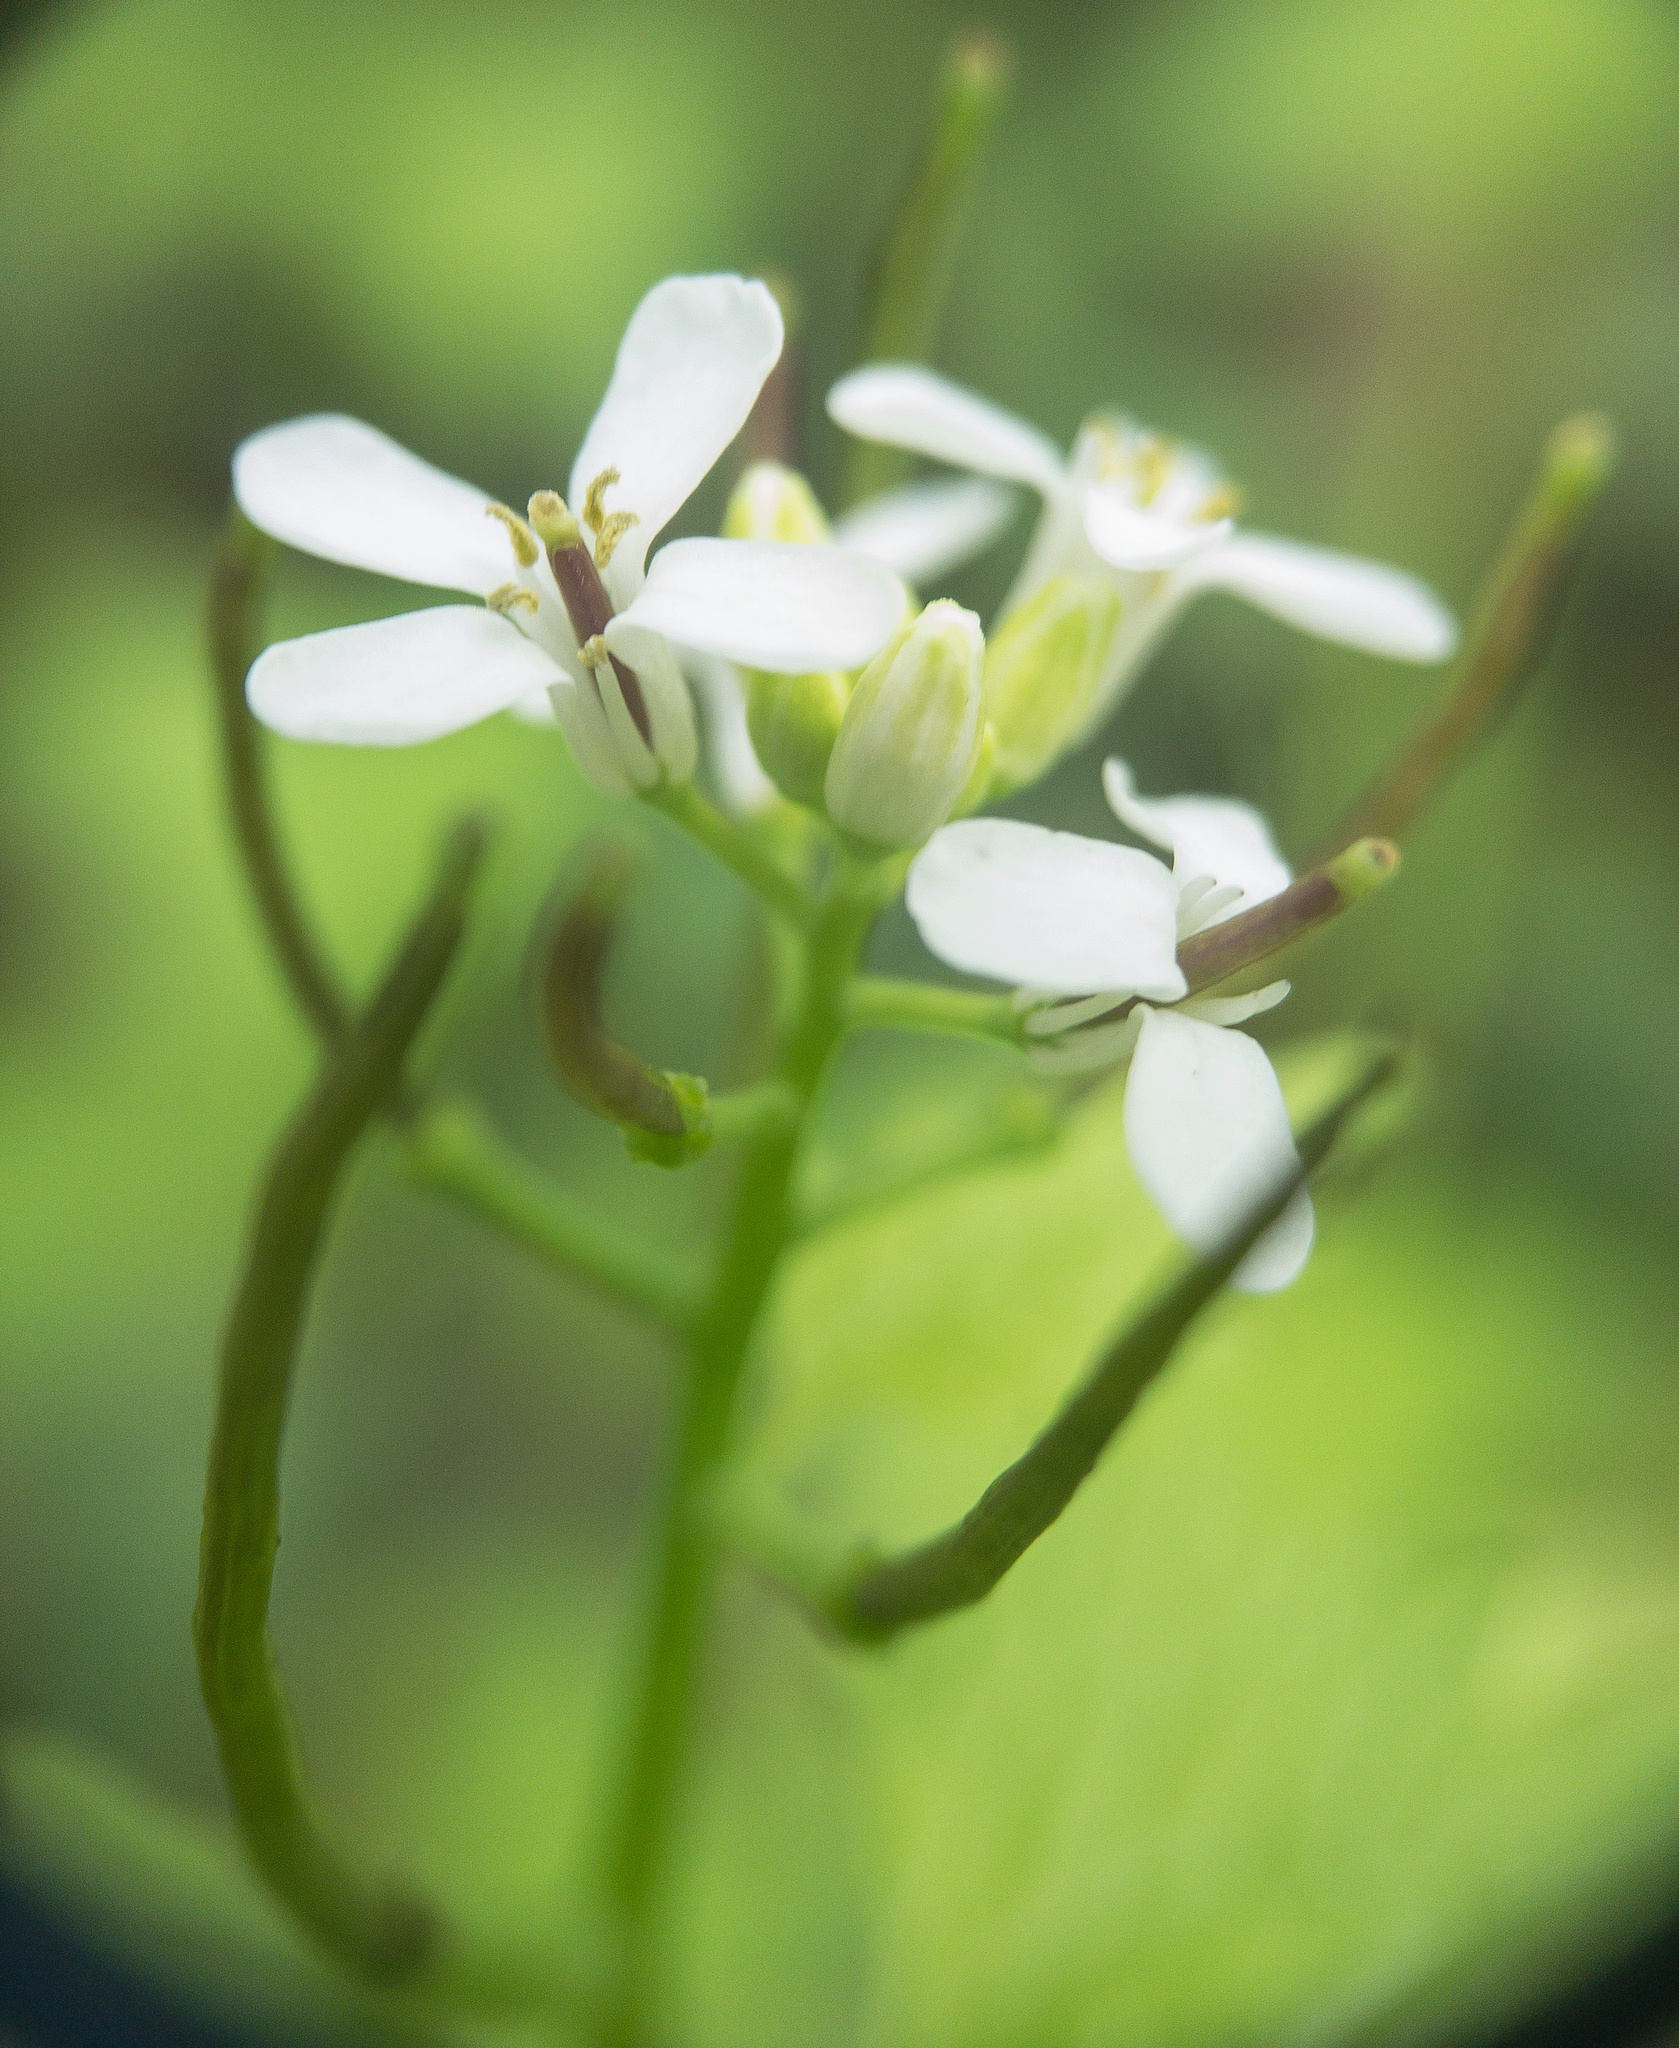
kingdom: Plantae
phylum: Tracheophyta
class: Magnoliopsida
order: Brassicales
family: Brassicaceae
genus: Alliaria
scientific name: Alliaria petiolata
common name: Garlic mustard
